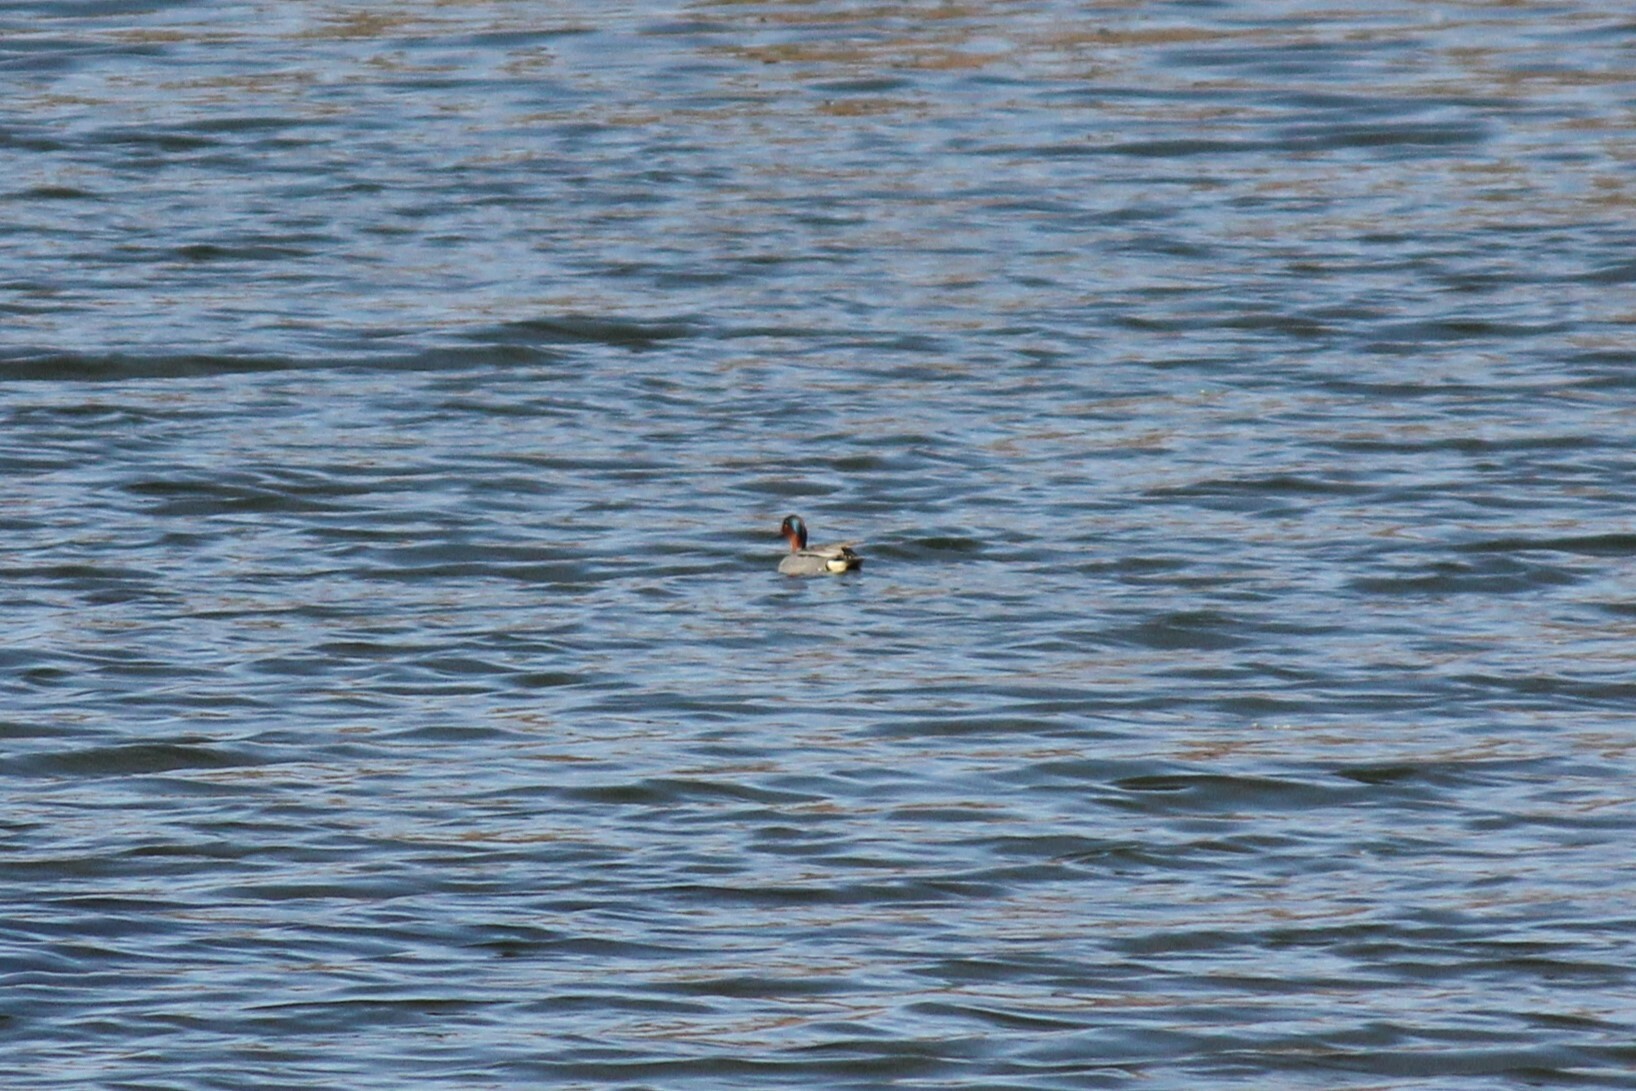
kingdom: Animalia
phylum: Chordata
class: Aves
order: Anseriformes
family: Anatidae
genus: Anas
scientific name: Anas crecca
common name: Eurasian teal
